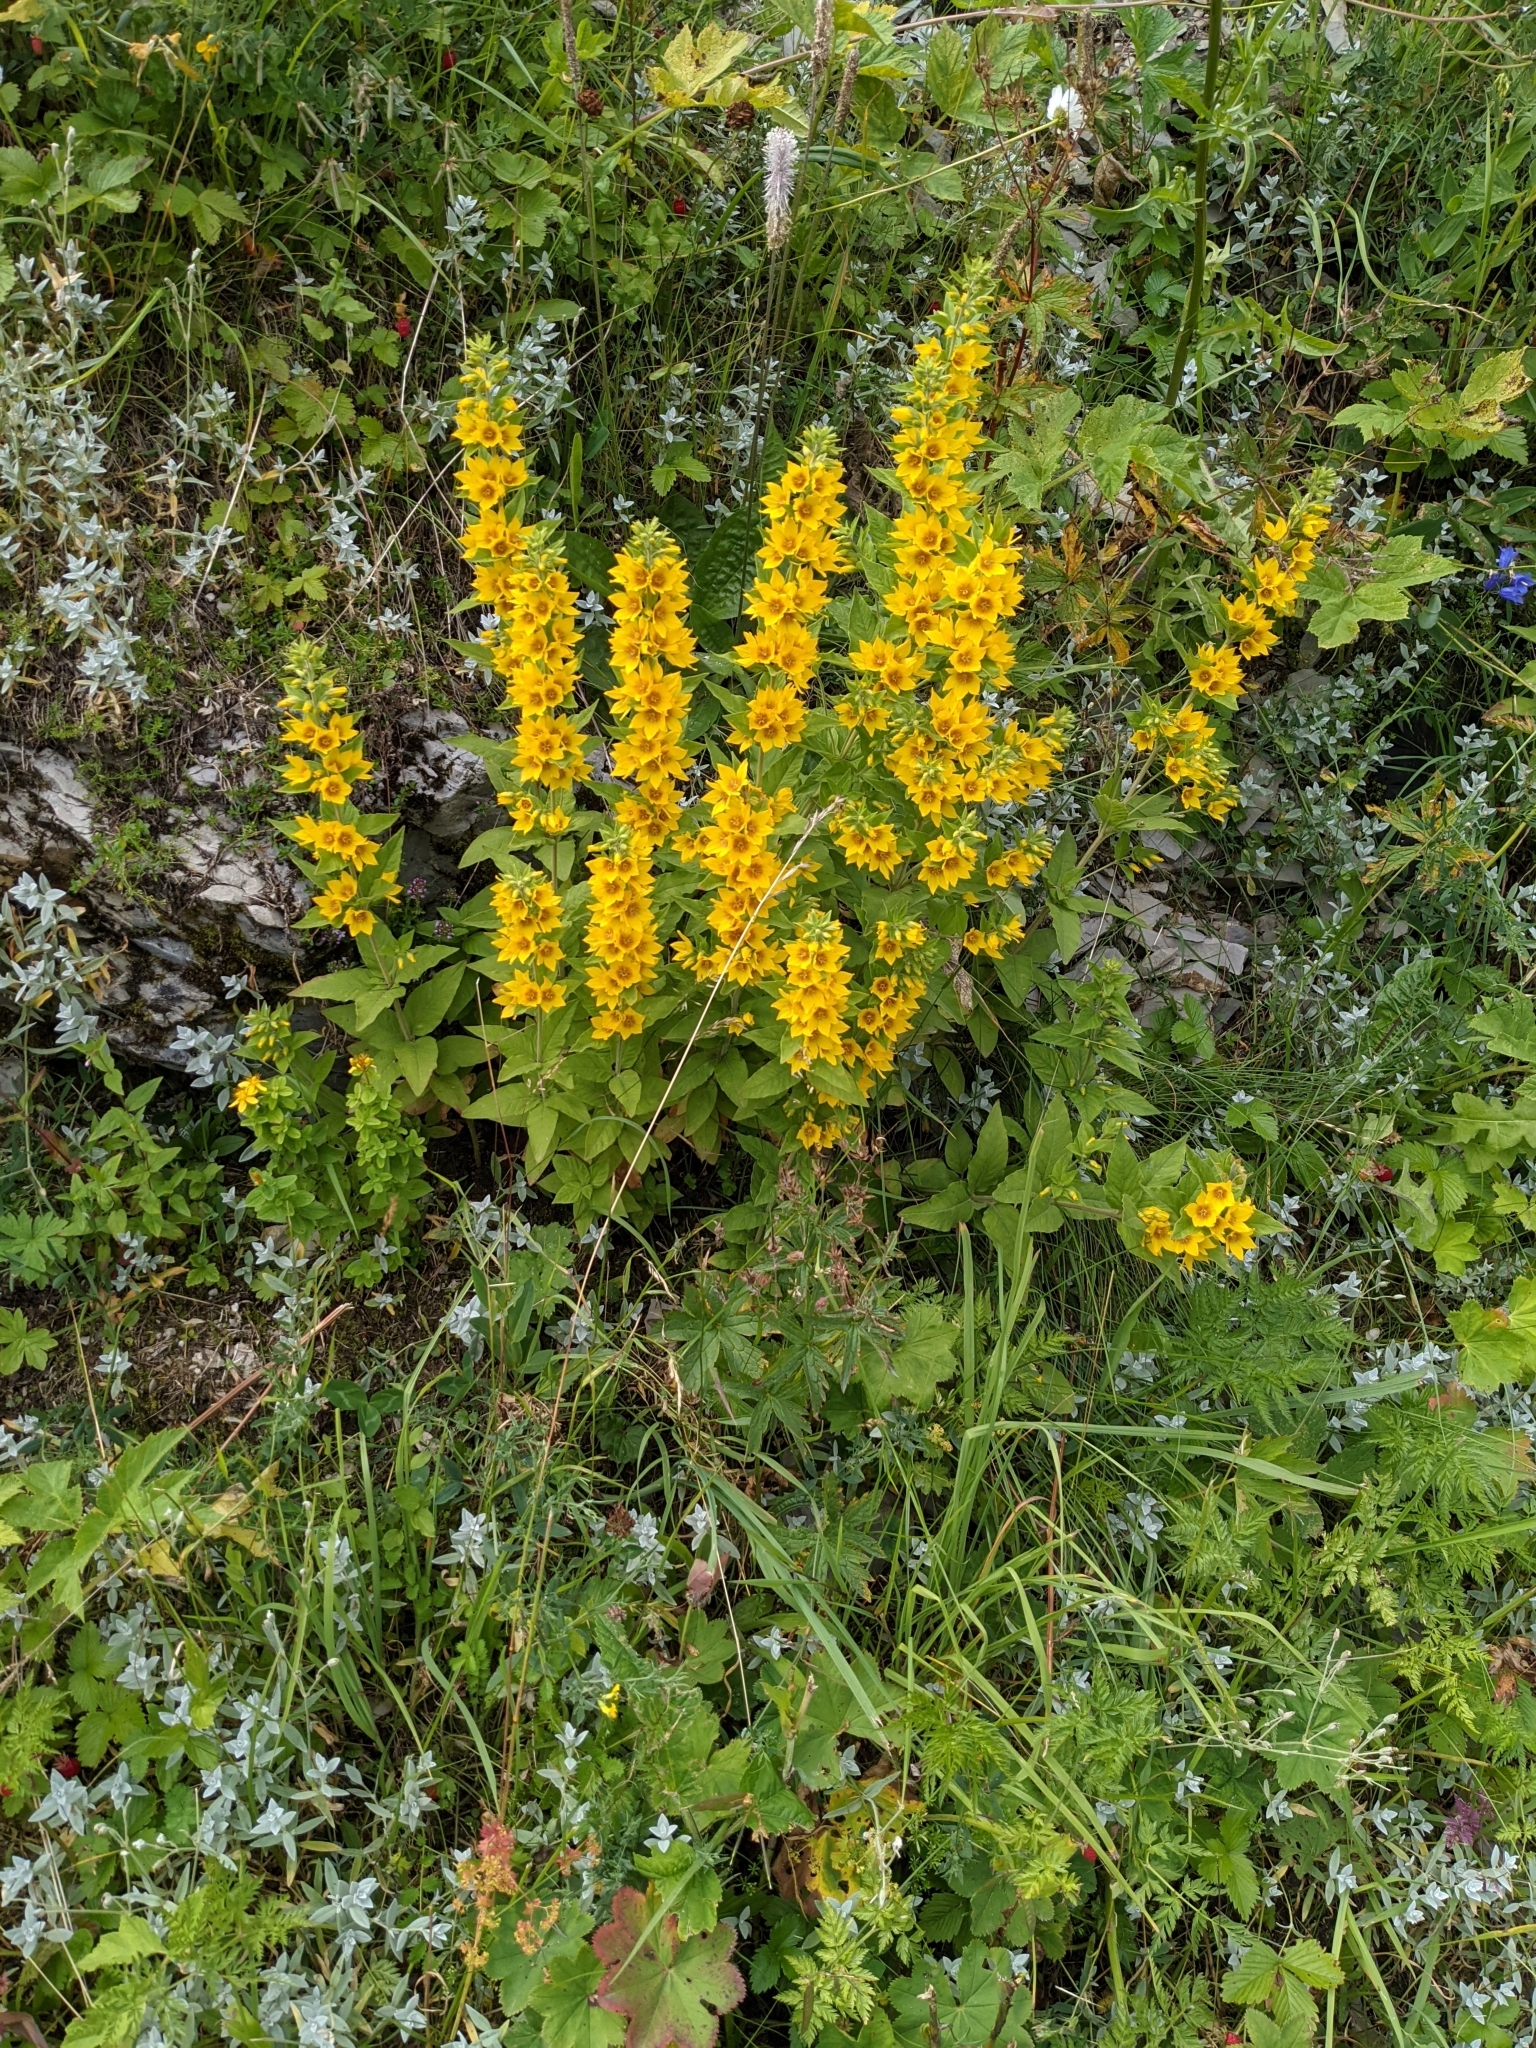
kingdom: Plantae
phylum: Tracheophyta
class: Magnoliopsida
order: Ericales
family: Primulaceae
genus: Lysimachia
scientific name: Lysimachia punctata
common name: Dotted loosestrife
